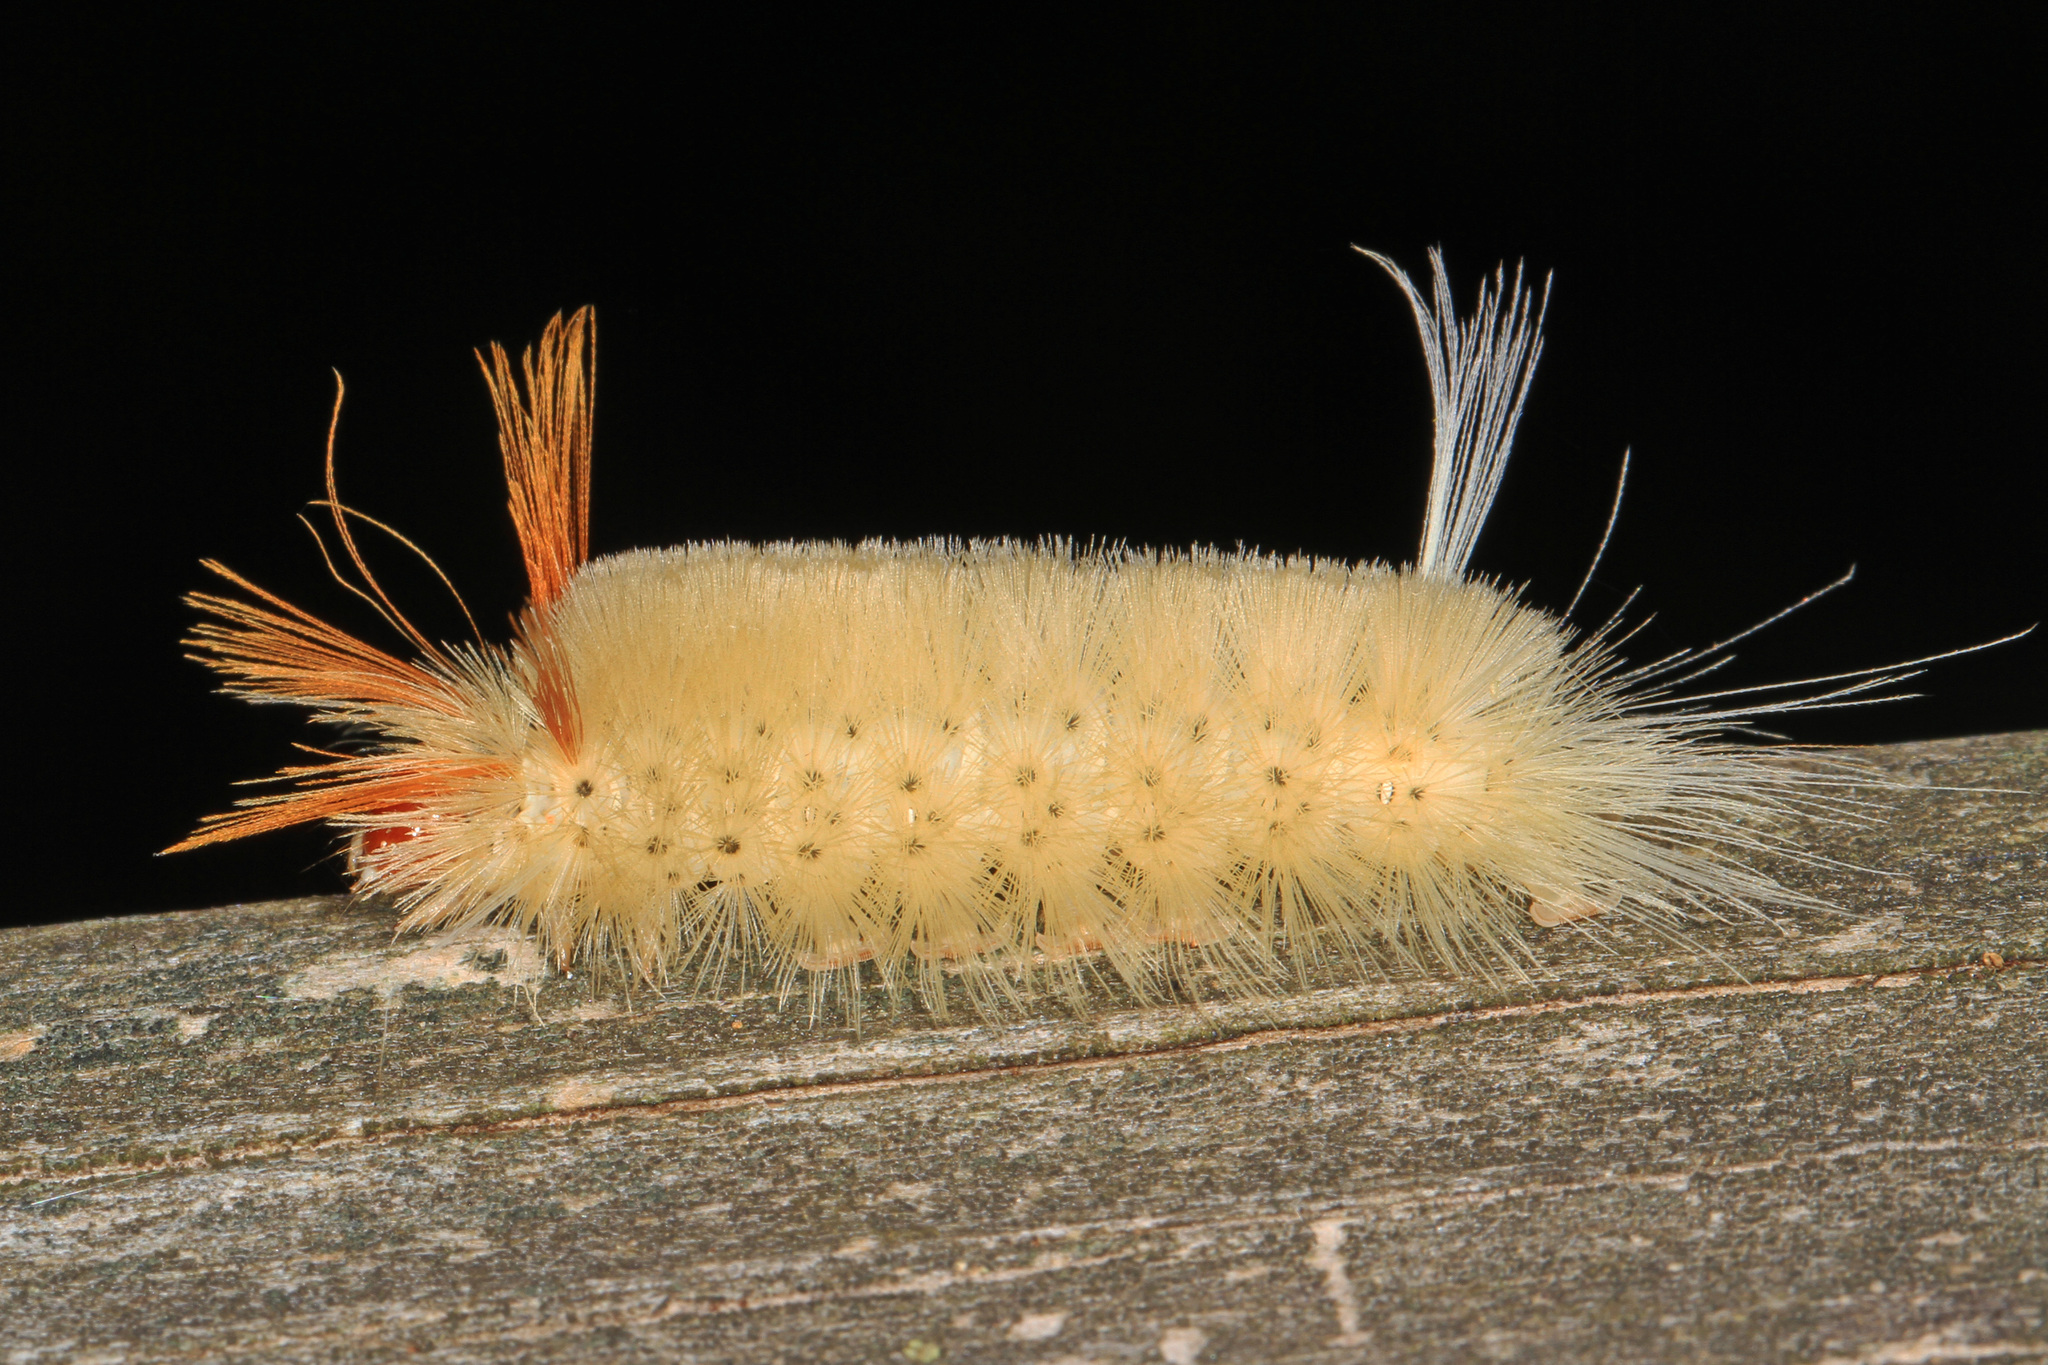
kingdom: Animalia
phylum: Arthropoda
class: Insecta
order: Lepidoptera
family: Erebidae
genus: Halysidota
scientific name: Halysidota harrisii
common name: Sycamore tussock moth
